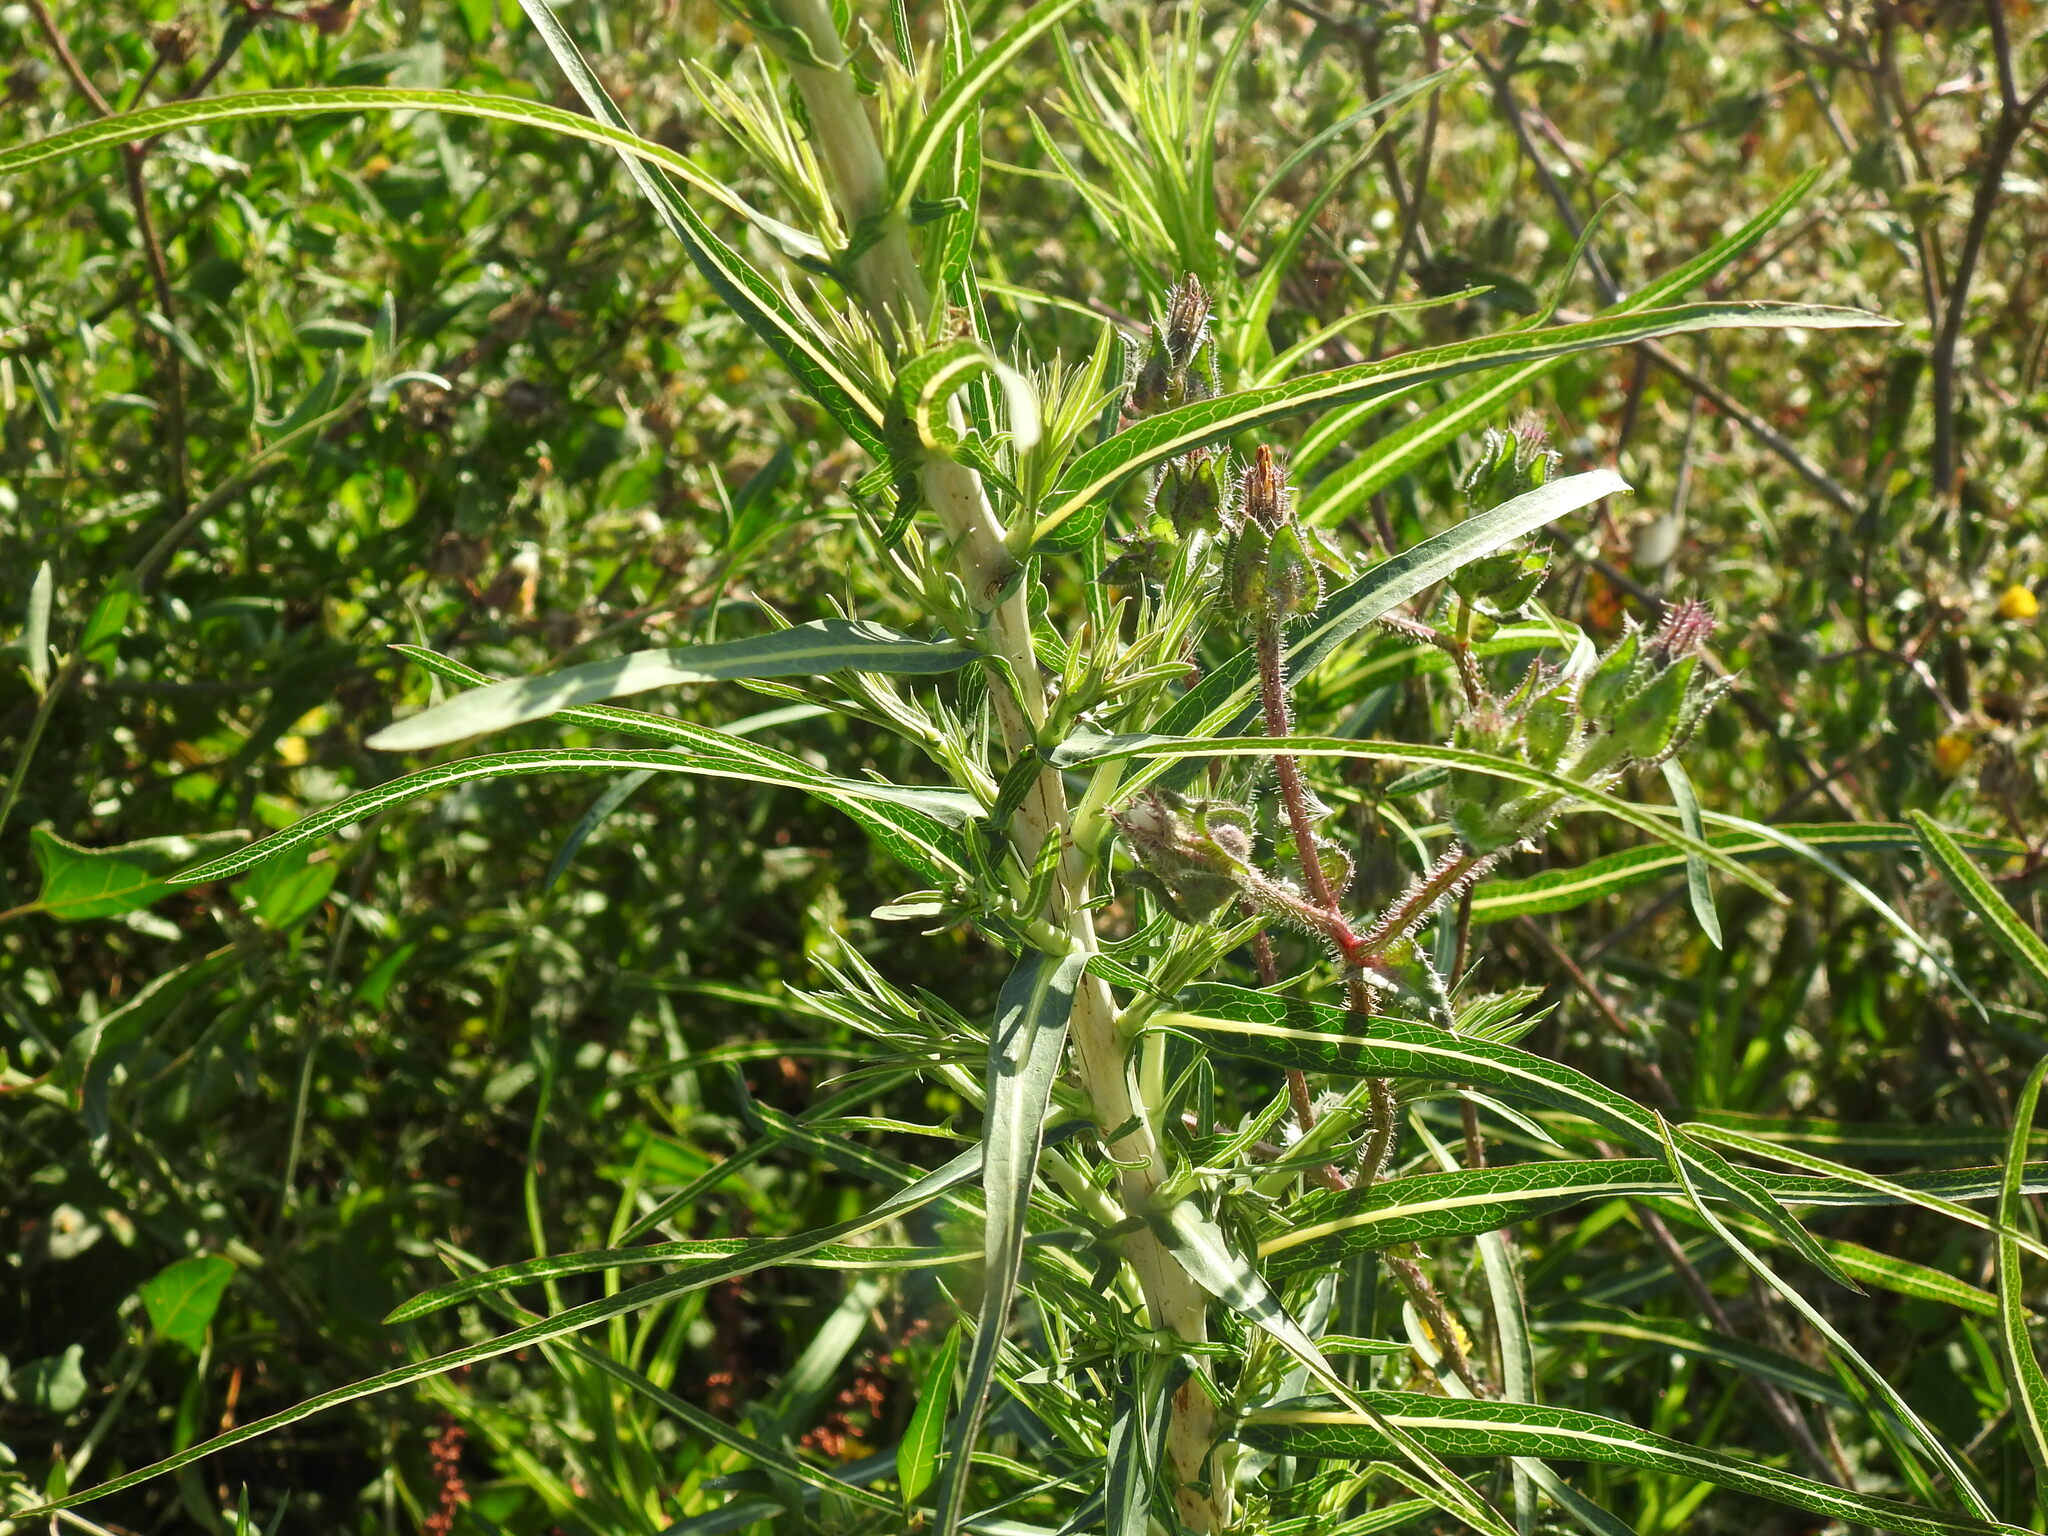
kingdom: Plantae
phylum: Tracheophyta
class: Magnoliopsida
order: Asterales
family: Asteraceae
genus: Lactuca
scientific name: Lactuca saligna
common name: Wild lettuce
